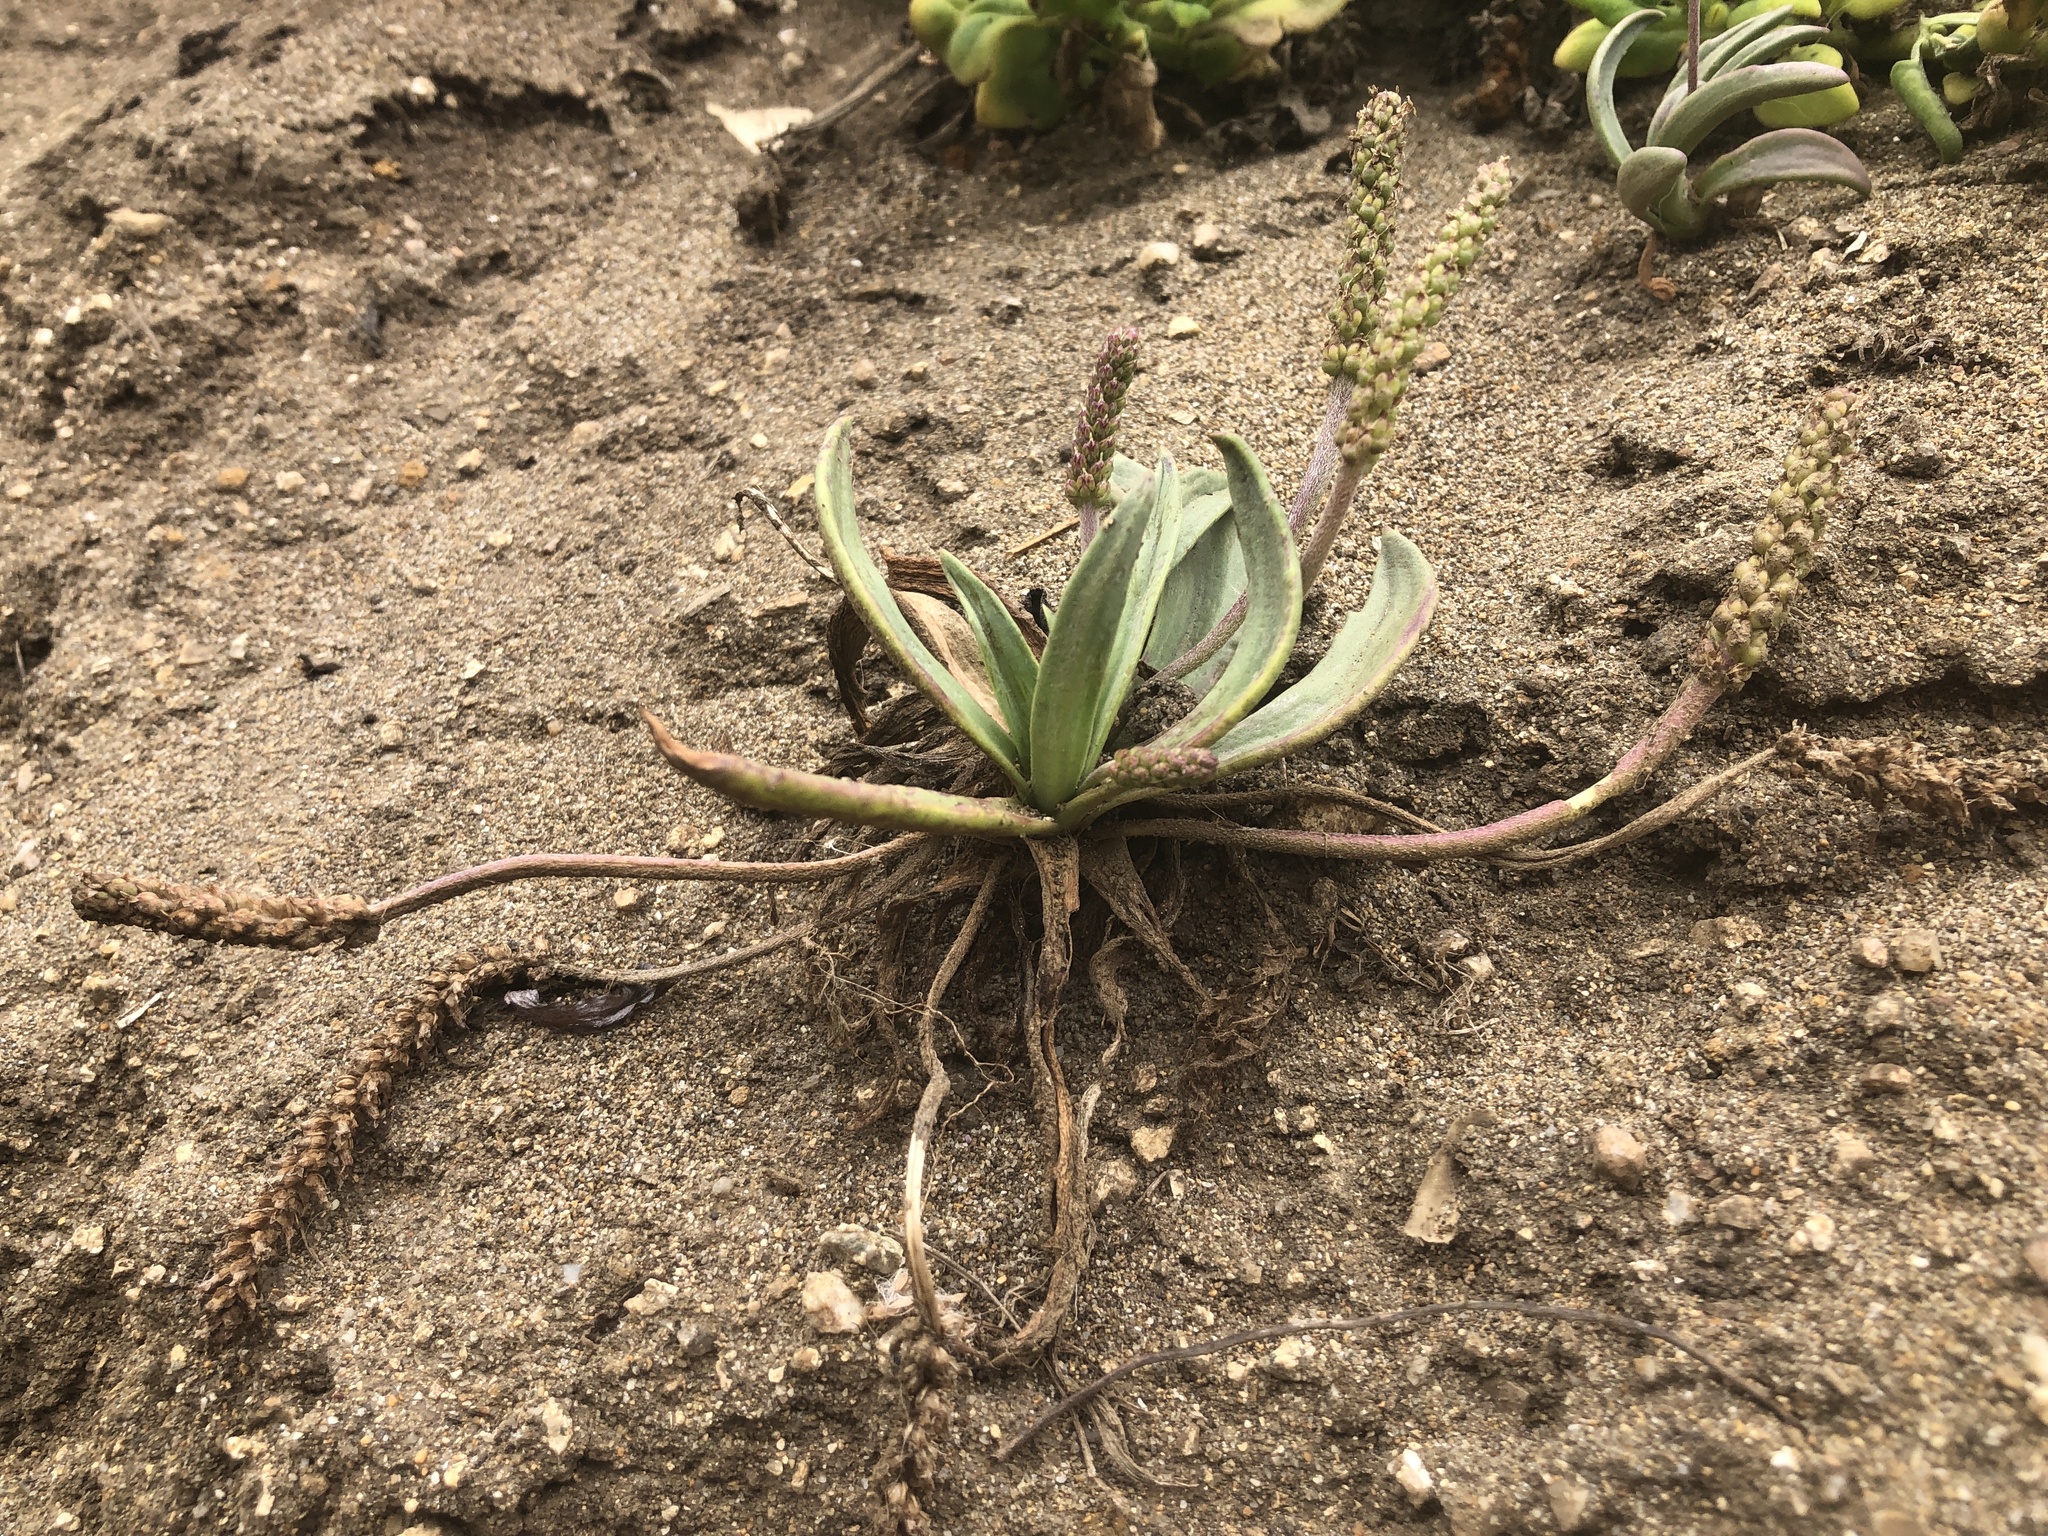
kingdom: Plantae
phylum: Tracheophyta
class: Magnoliopsida
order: Lamiales
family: Plantaginaceae
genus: Plantago
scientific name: Plantago maritima
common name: Sea plantain
